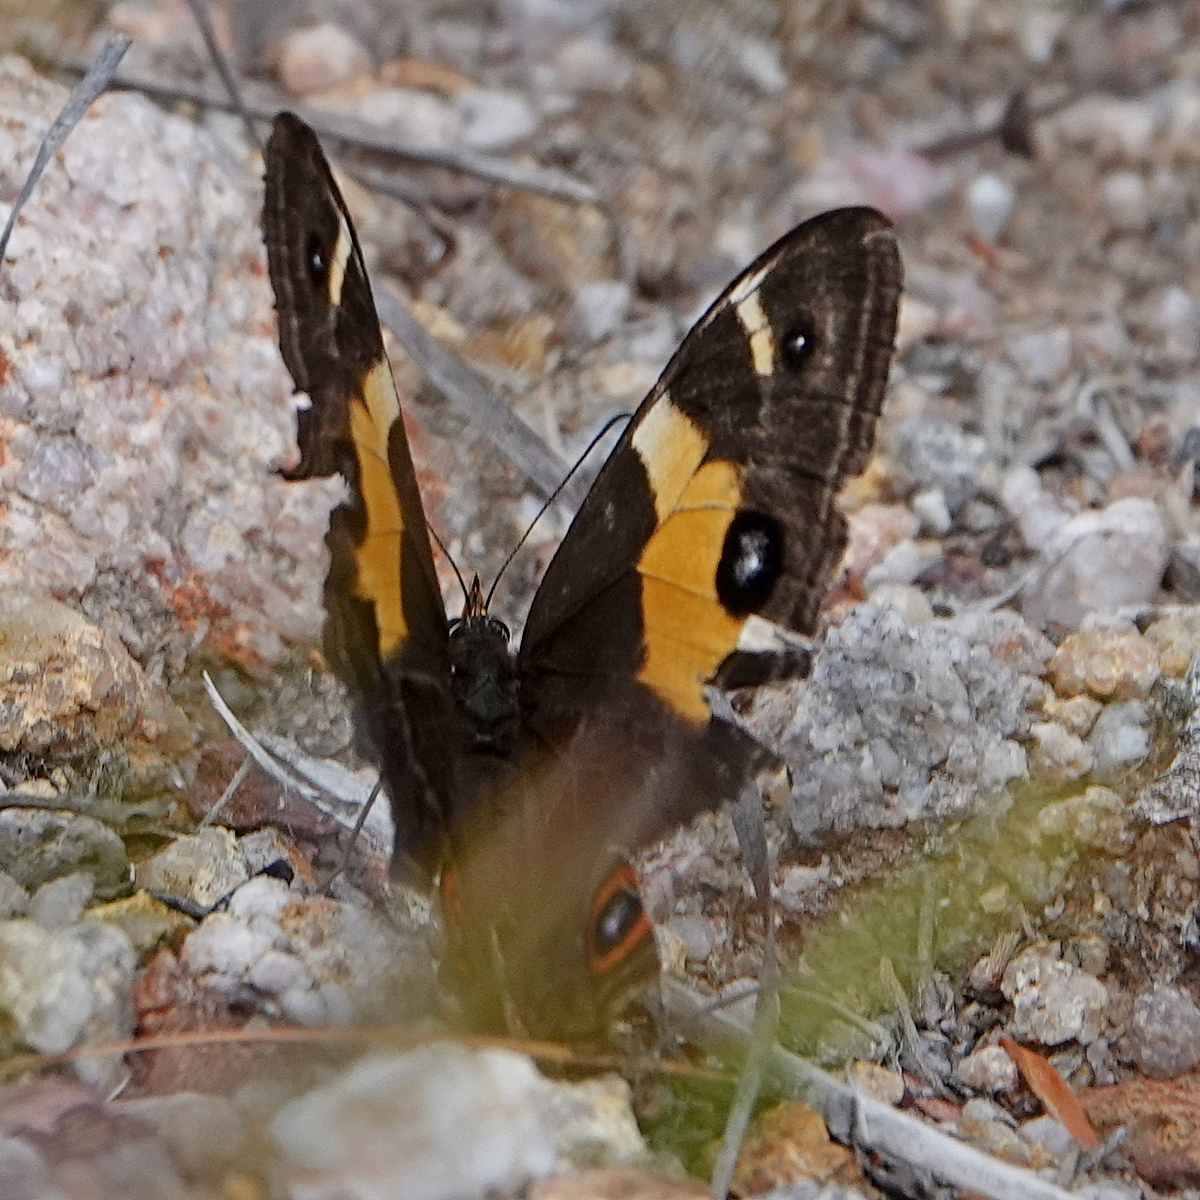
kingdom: Animalia
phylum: Arthropoda
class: Insecta
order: Lepidoptera
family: Nymphalidae
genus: Tisiphone
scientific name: Tisiphone abeona
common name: Swordgrass brown
